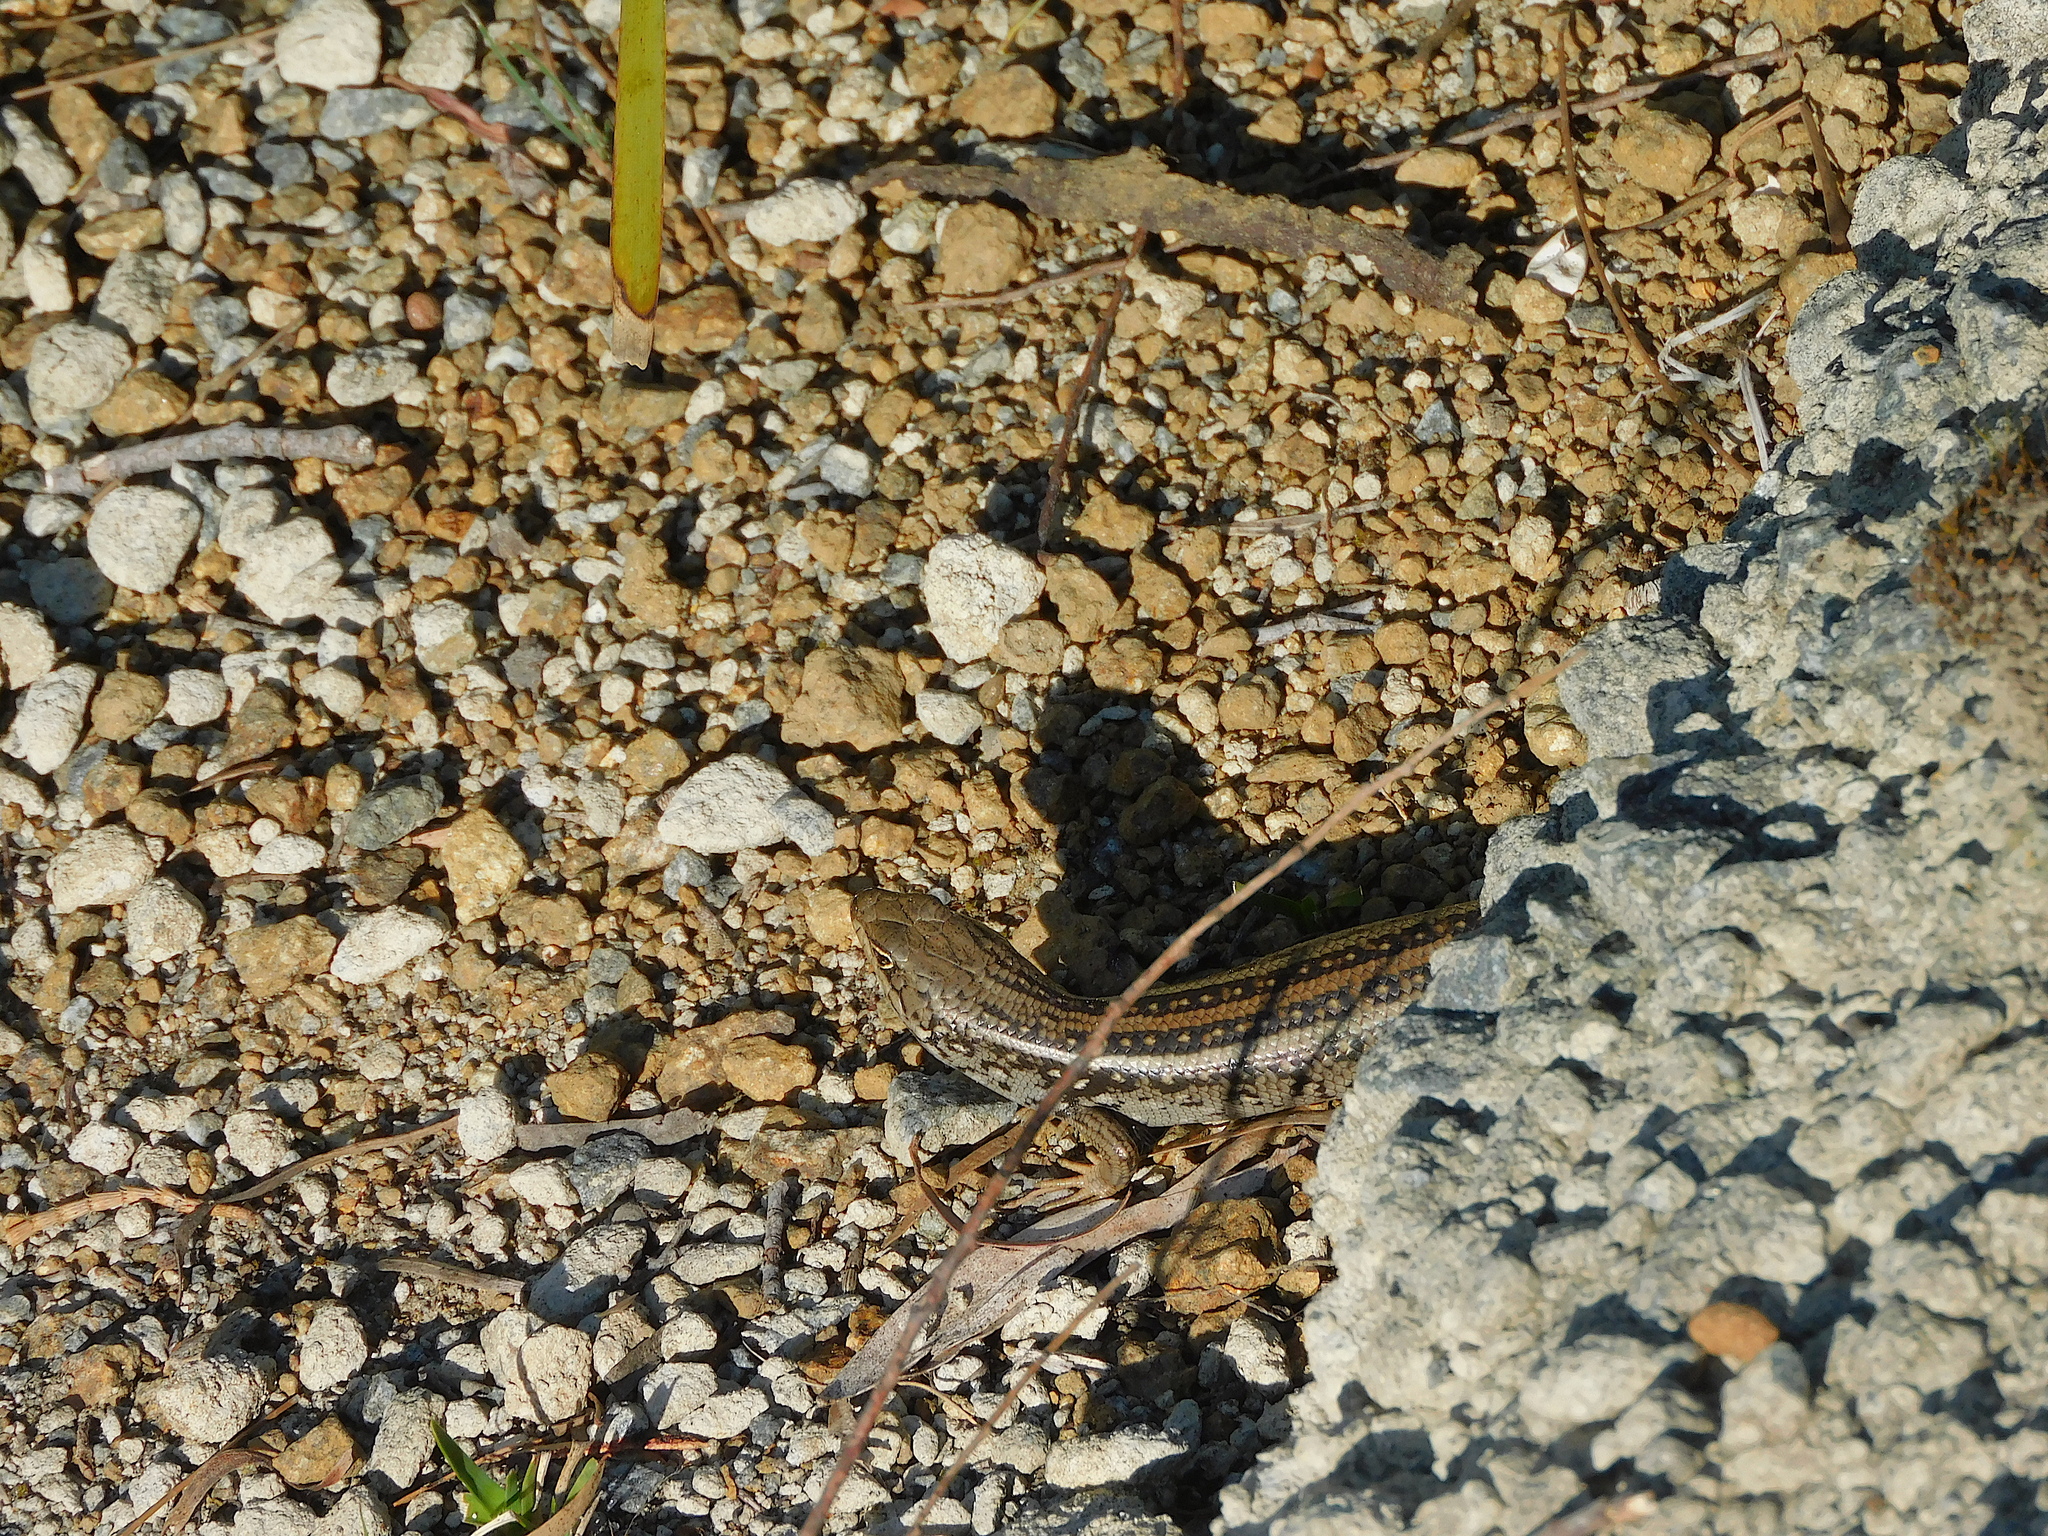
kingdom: Animalia
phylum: Chordata
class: Squamata
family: Scincidae
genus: Liopholis
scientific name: Liopholis whitii
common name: White's rock-skink
